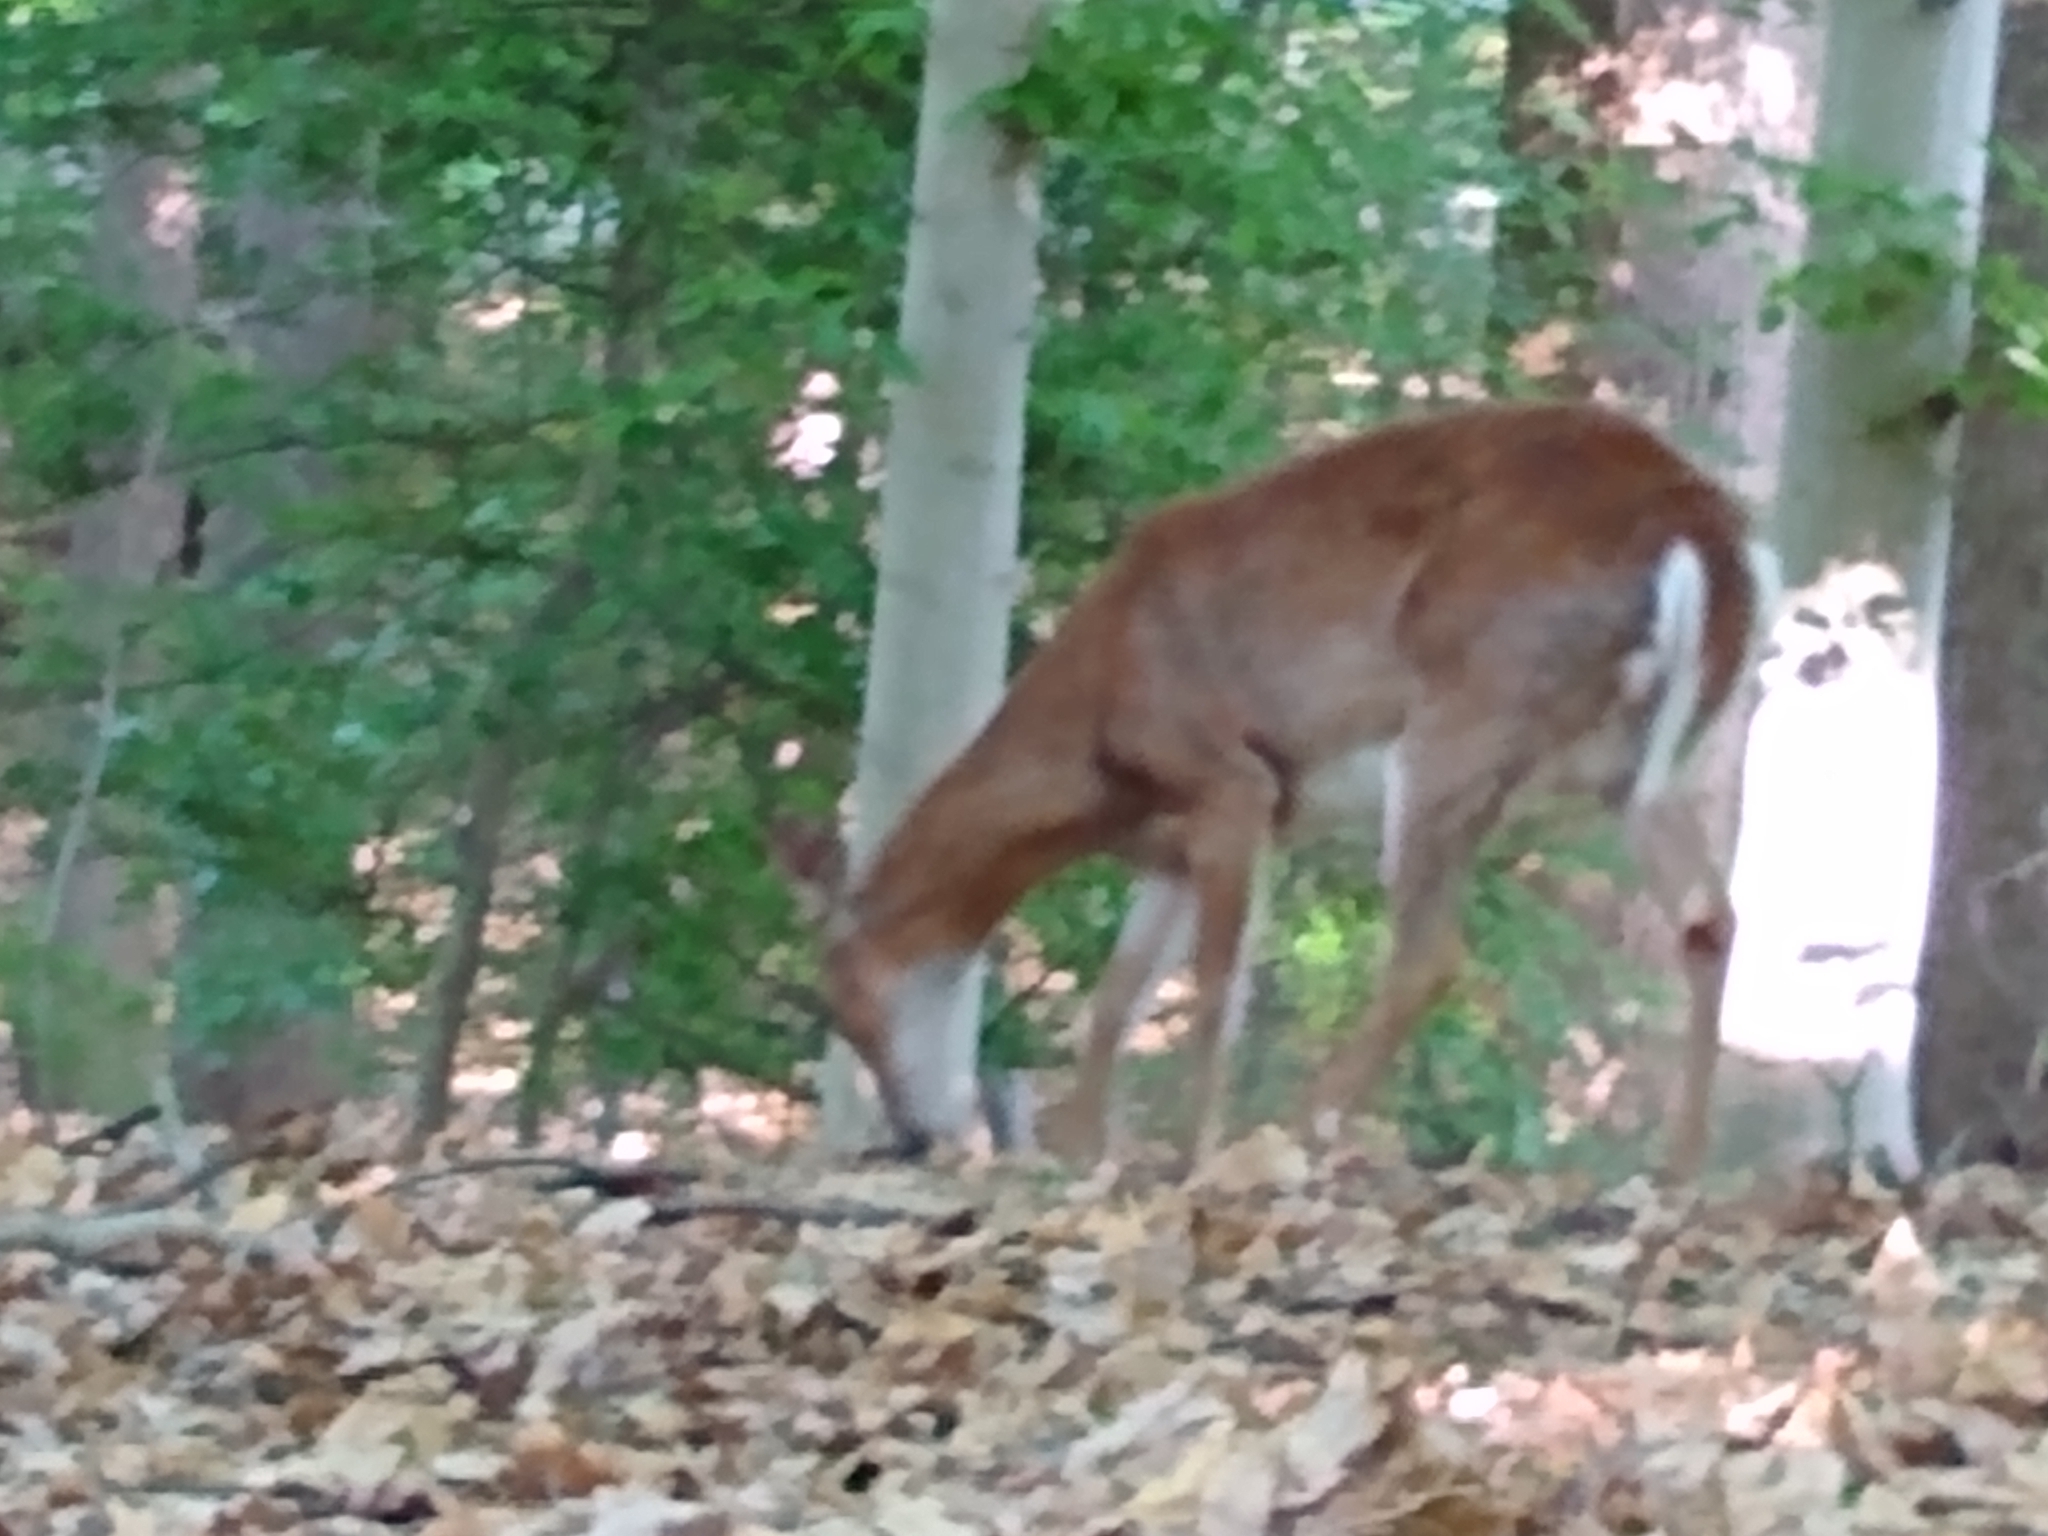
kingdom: Animalia
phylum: Chordata
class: Mammalia
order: Artiodactyla
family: Cervidae
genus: Odocoileus
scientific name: Odocoileus virginianus
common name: White-tailed deer
